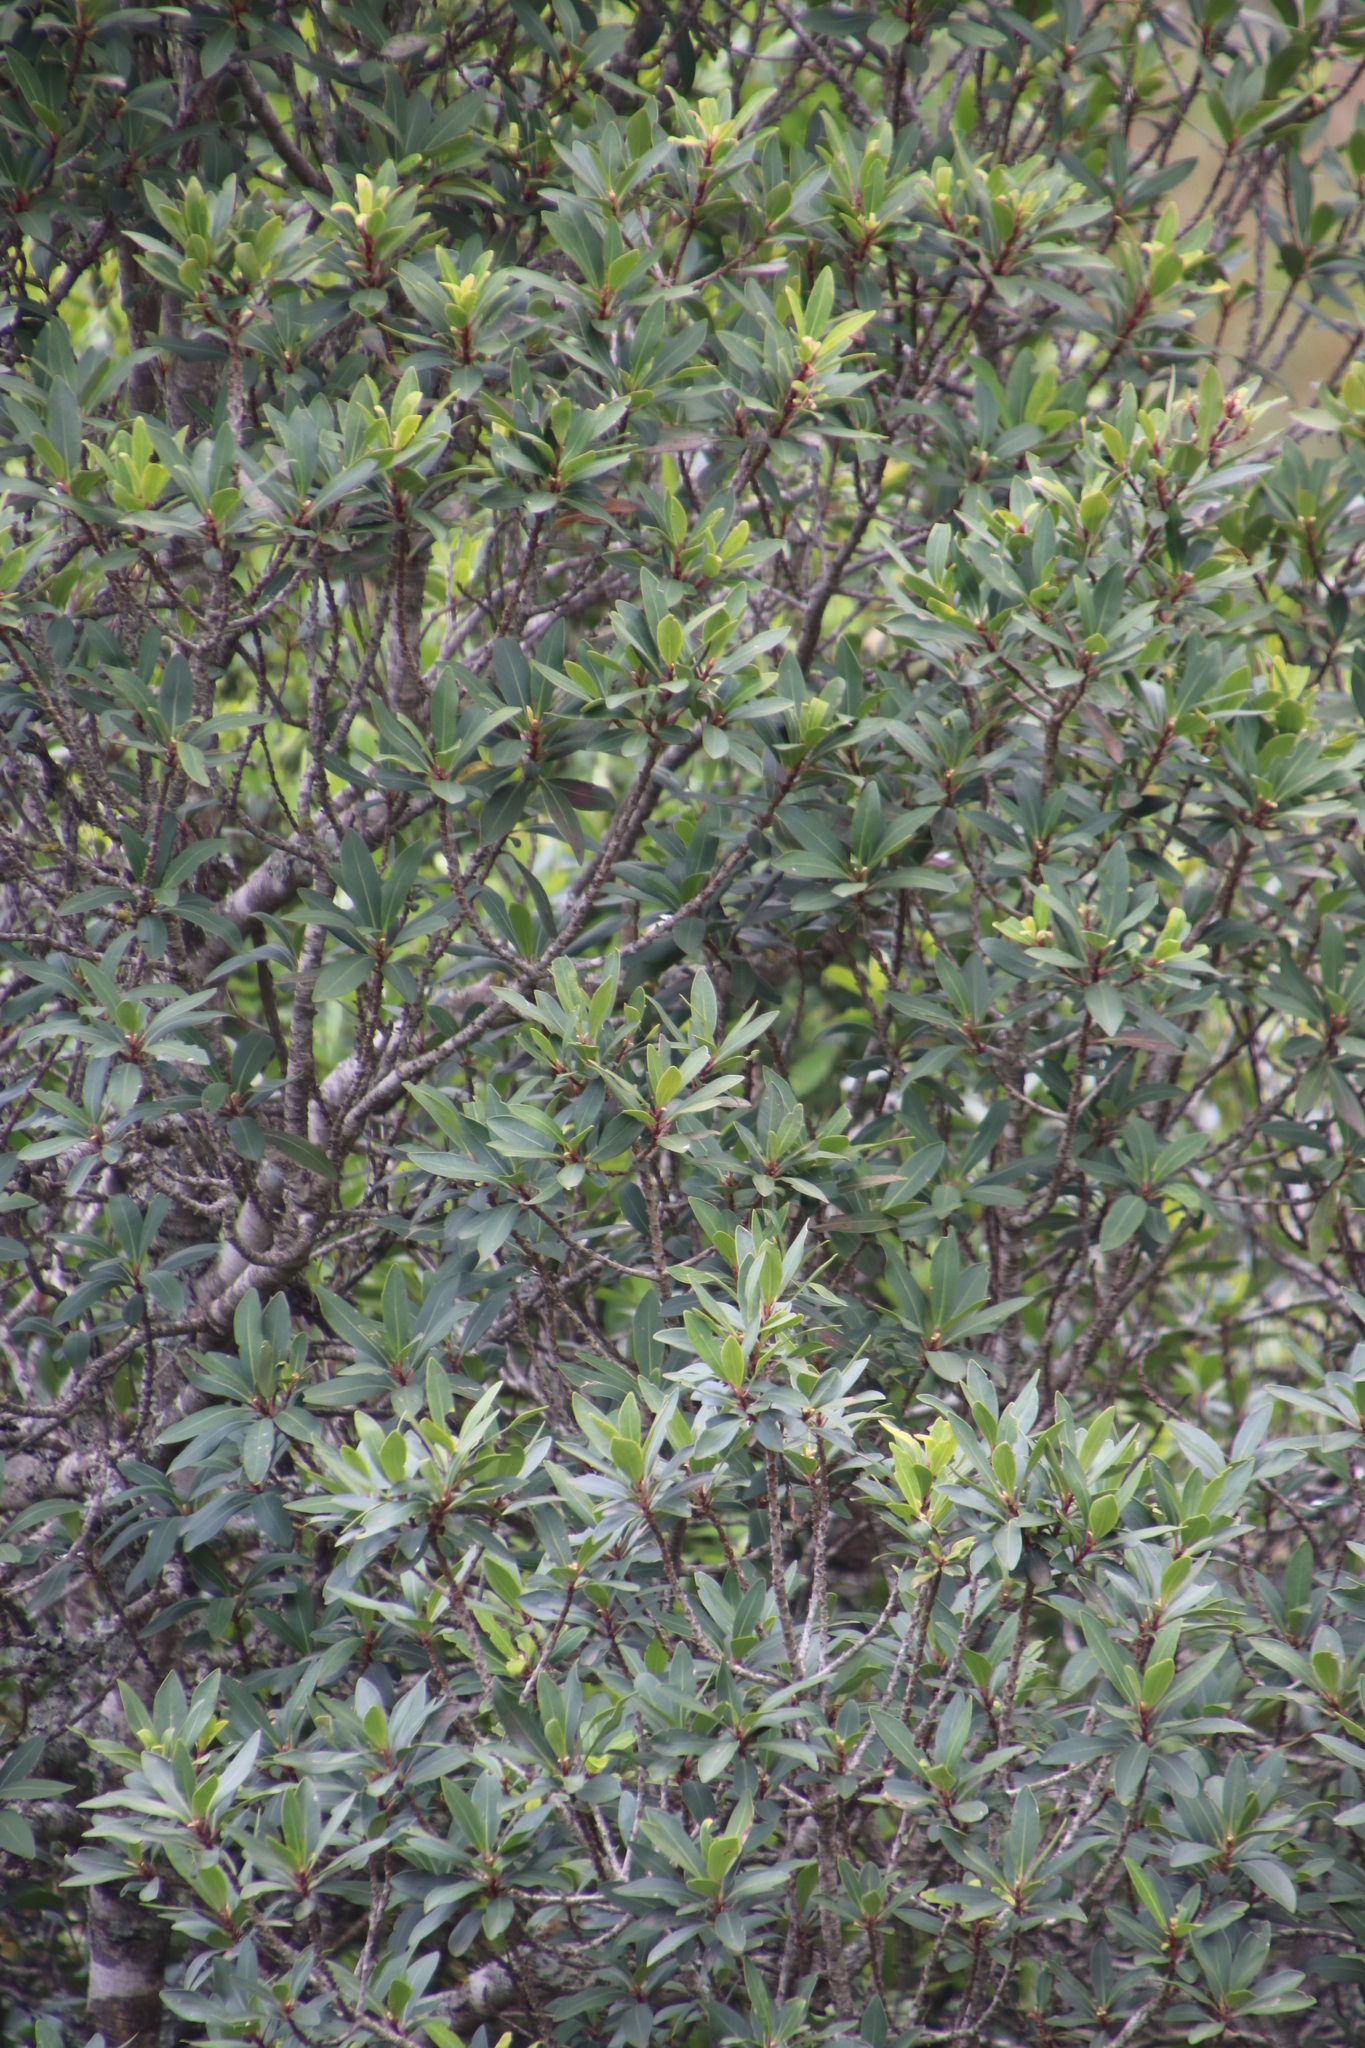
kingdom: Plantae
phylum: Tracheophyta
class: Magnoliopsida
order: Ericales
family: Primulaceae
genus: Myrsine
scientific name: Myrsine melanophloeos
